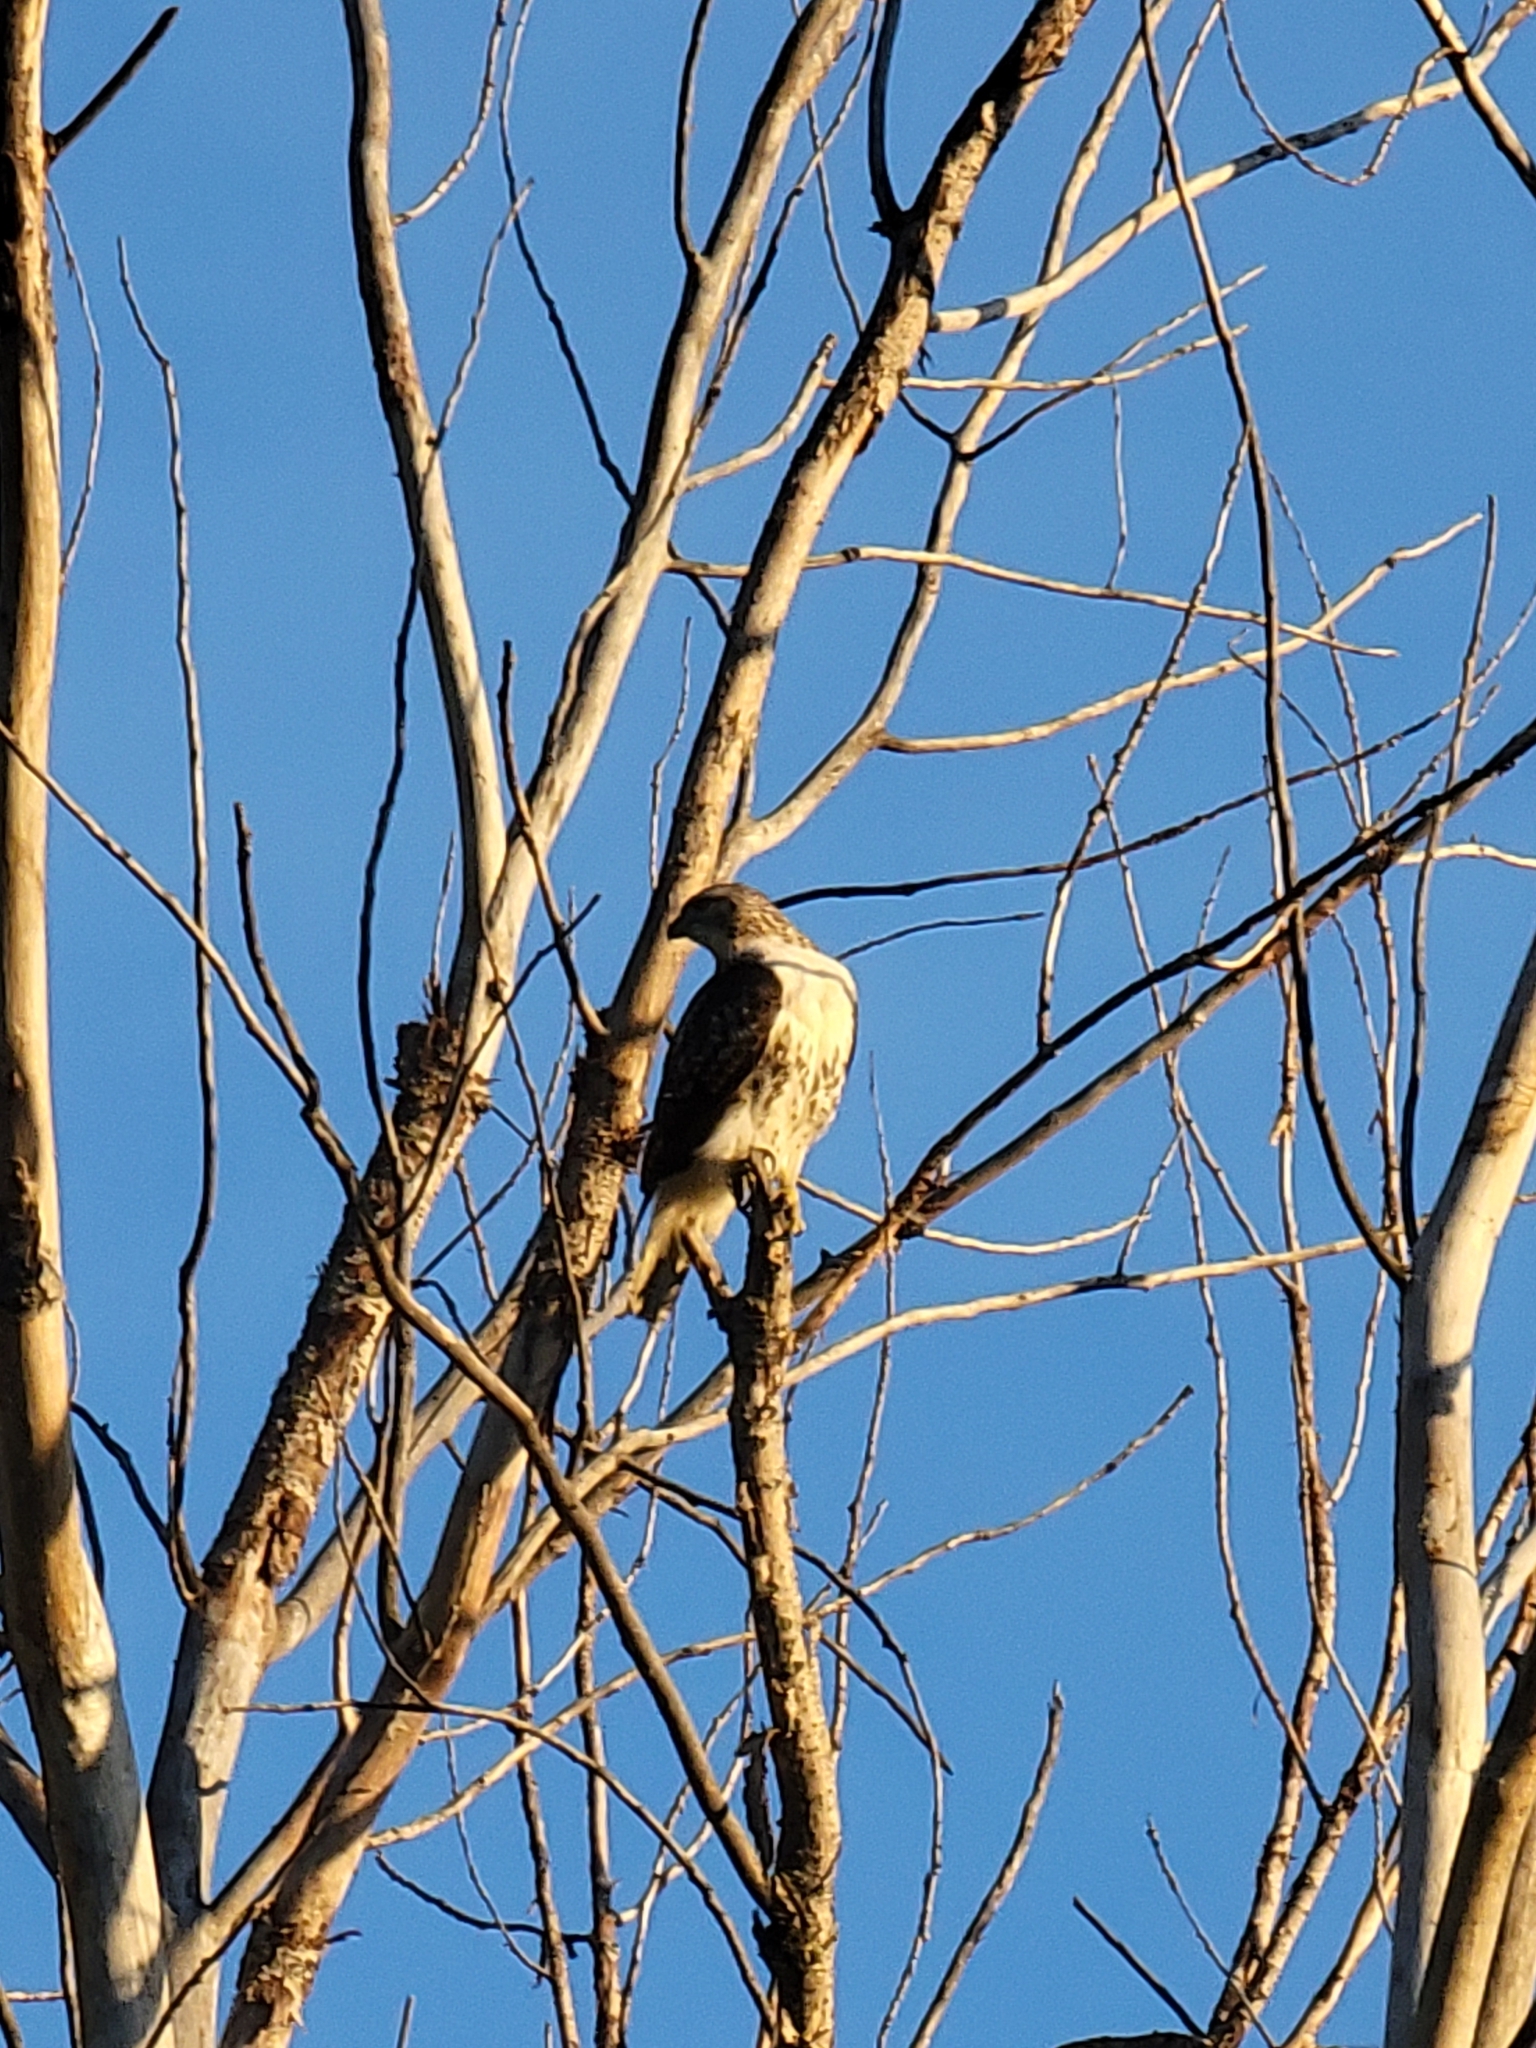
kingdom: Animalia
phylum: Chordata
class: Aves
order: Accipitriformes
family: Accipitridae
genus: Buteo
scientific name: Buteo jamaicensis
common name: Red-tailed hawk
